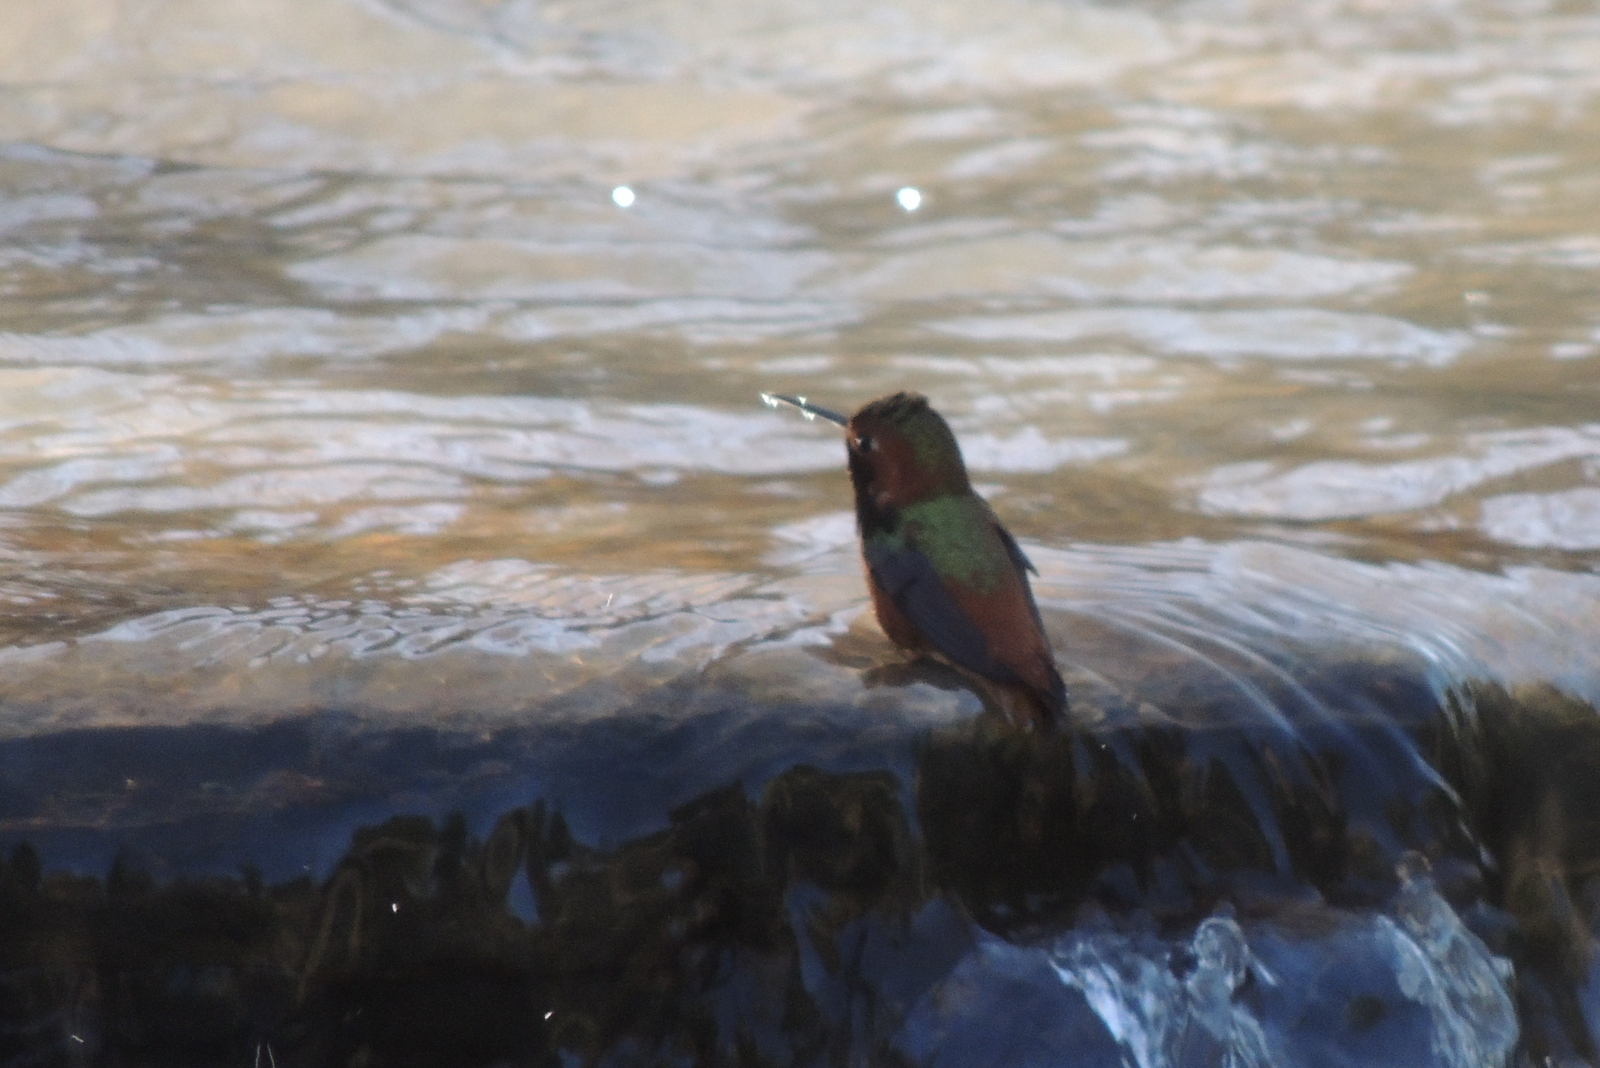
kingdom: Animalia
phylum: Chordata
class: Aves
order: Apodiformes
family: Trochilidae
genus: Selasphorus
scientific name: Selasphorus sasin
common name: Allen's hummingbird
